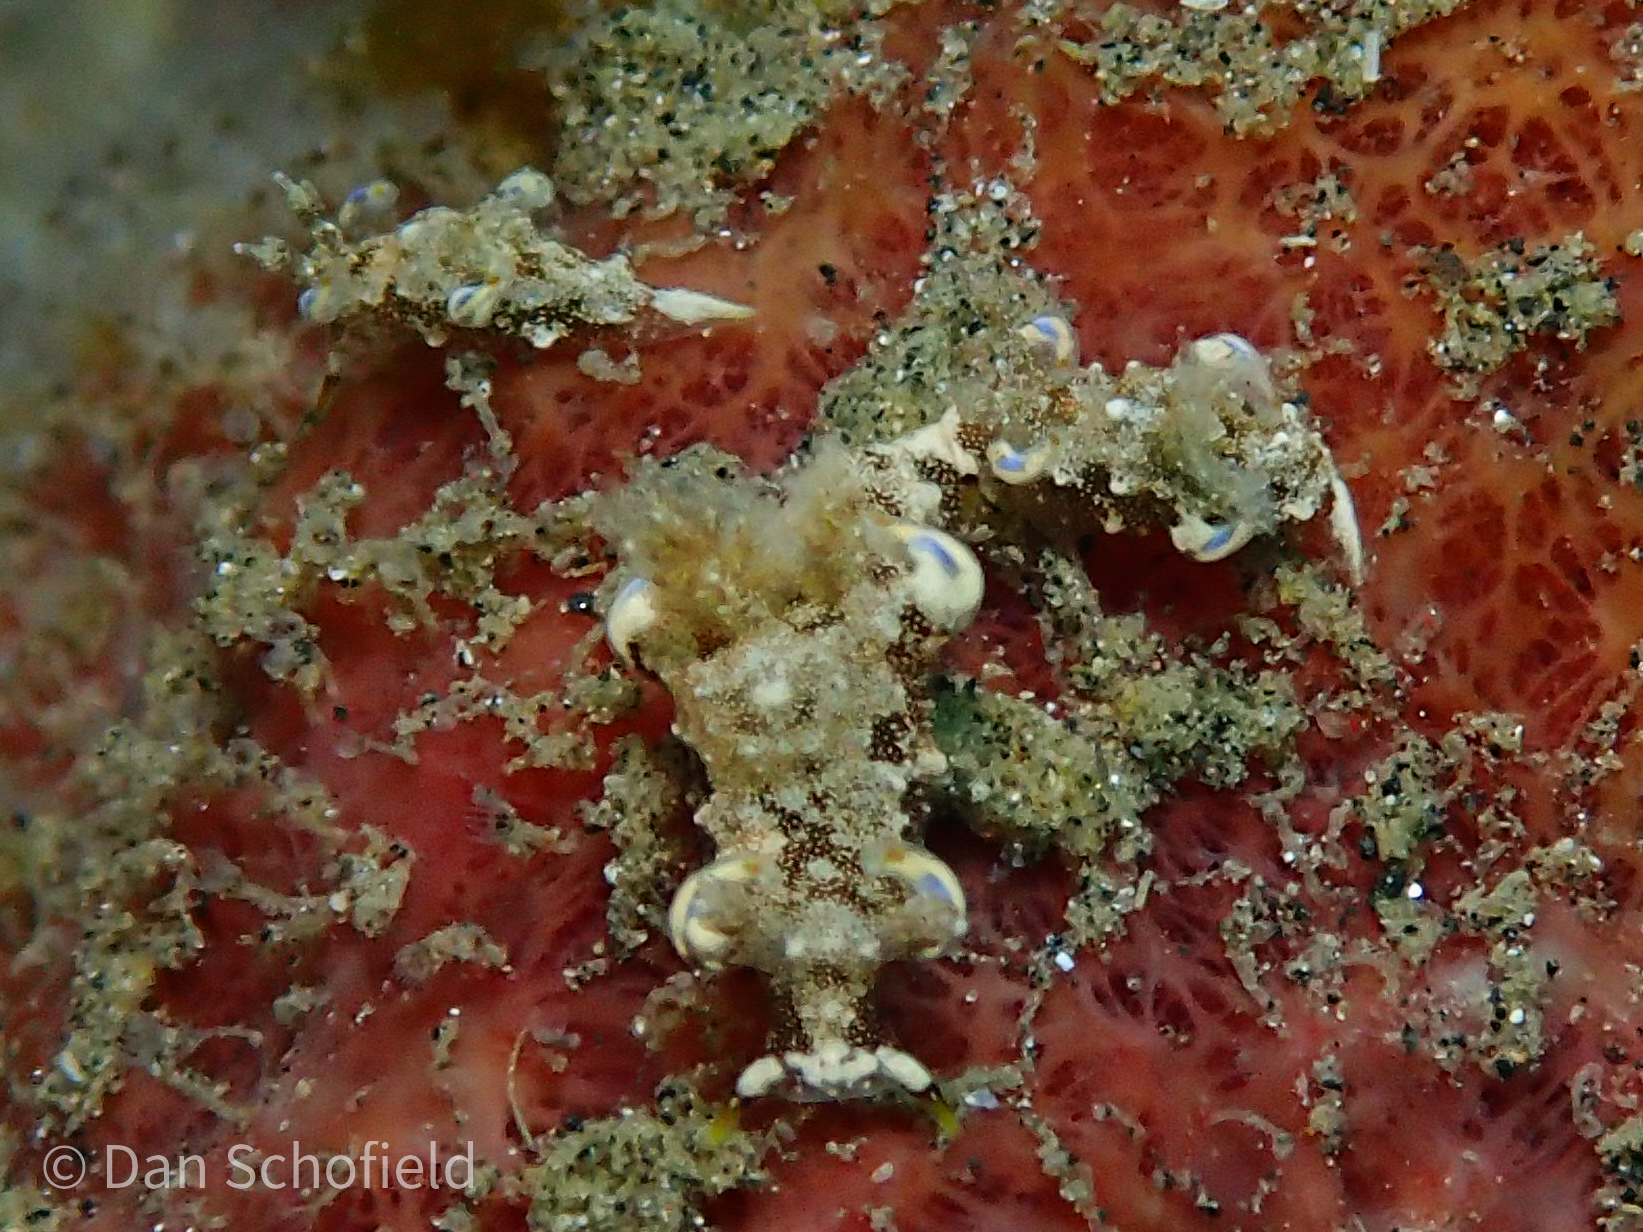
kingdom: Animalia
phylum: Mollusca
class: Gastropoda
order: Nudibranchia
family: Goniodorididae
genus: Trapania
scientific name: Trapania palmula
